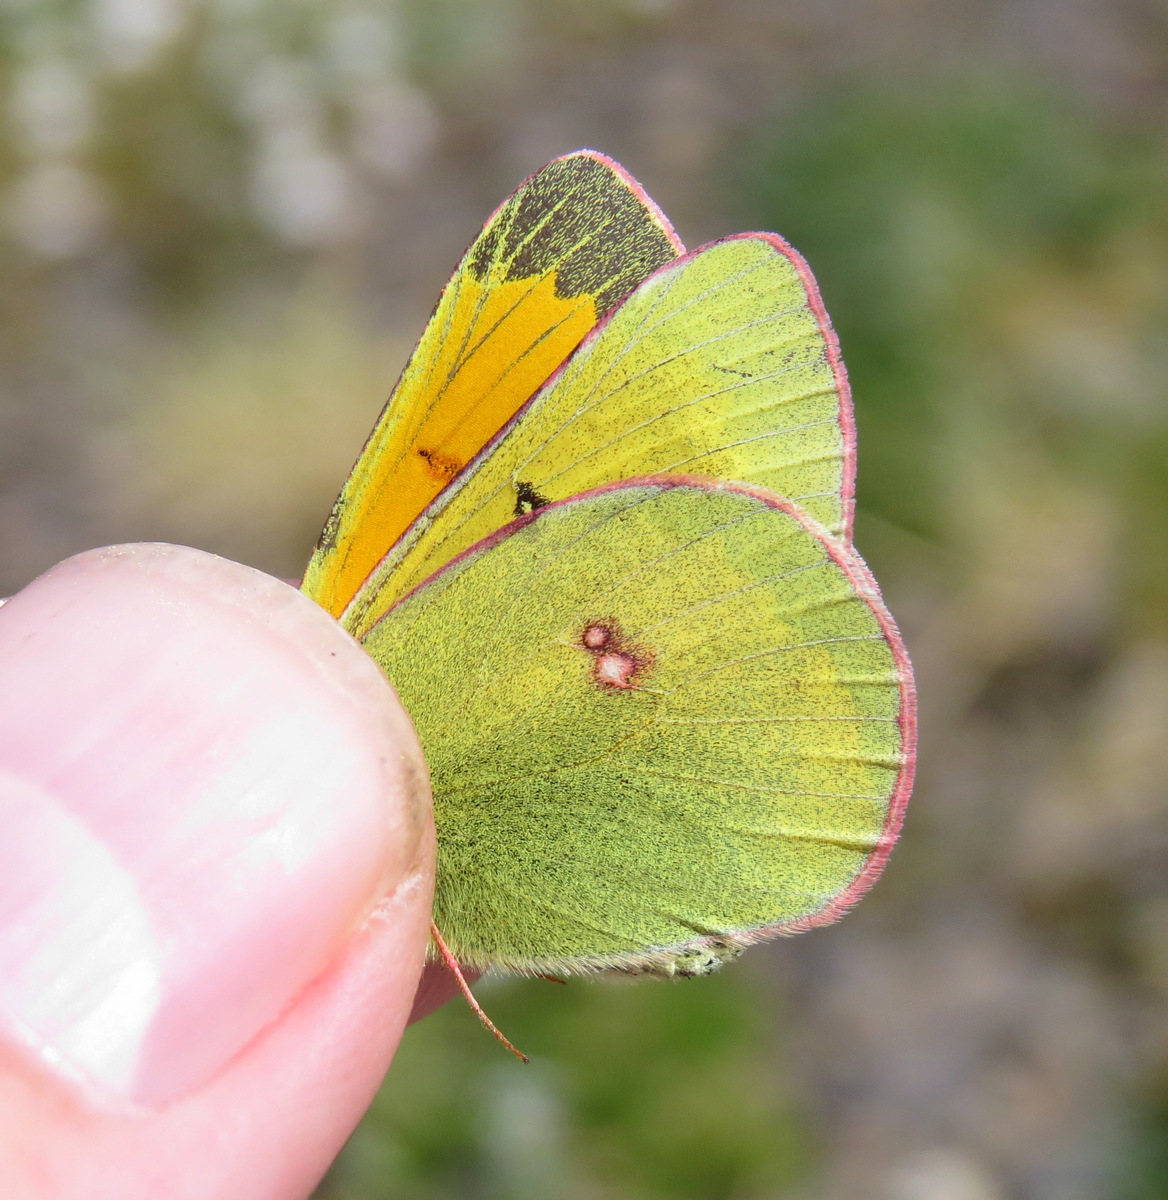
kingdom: Animalia
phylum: Arthropoda
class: Insecta
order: Lepidoptera
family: Pieridae
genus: Colias
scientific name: Colias hecla
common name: Northern clouded yellow
